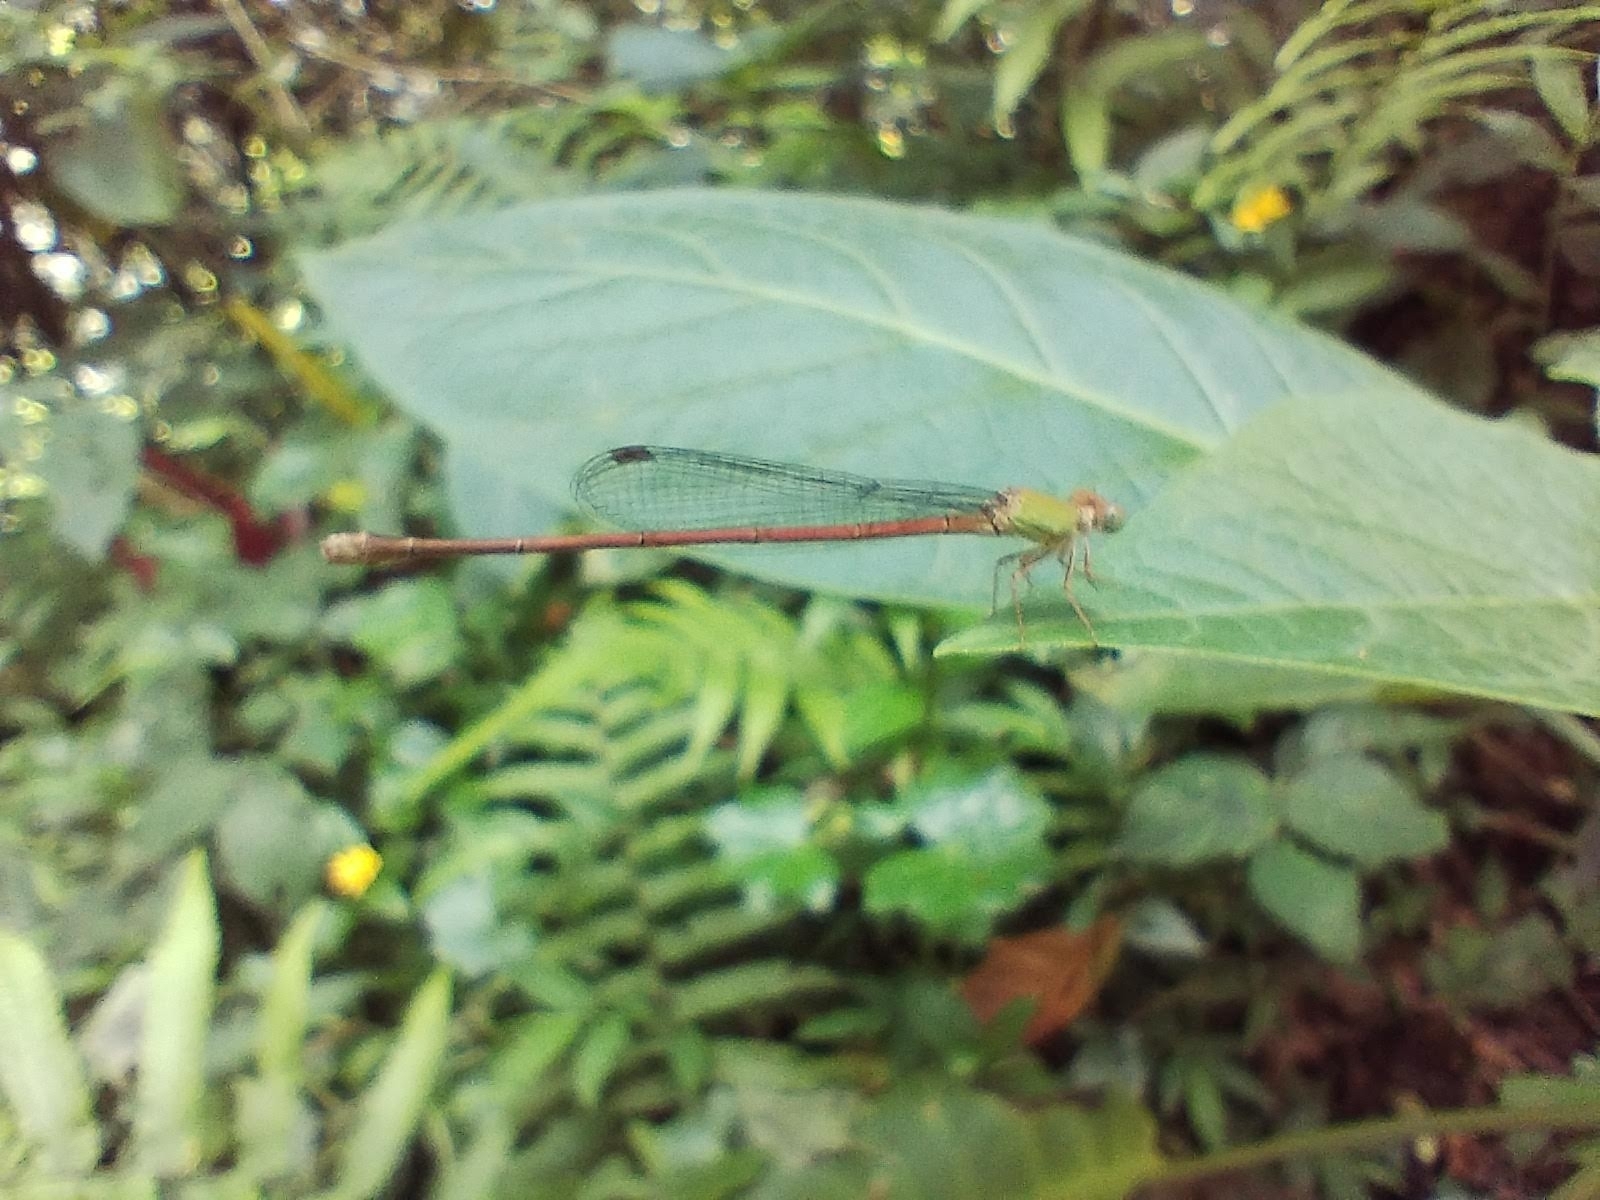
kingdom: Animalia
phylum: Arthropoda
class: Insecta
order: Odonata
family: Coenagrionidae
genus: Ceriagrion
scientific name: Ceriagrion olivaceum
